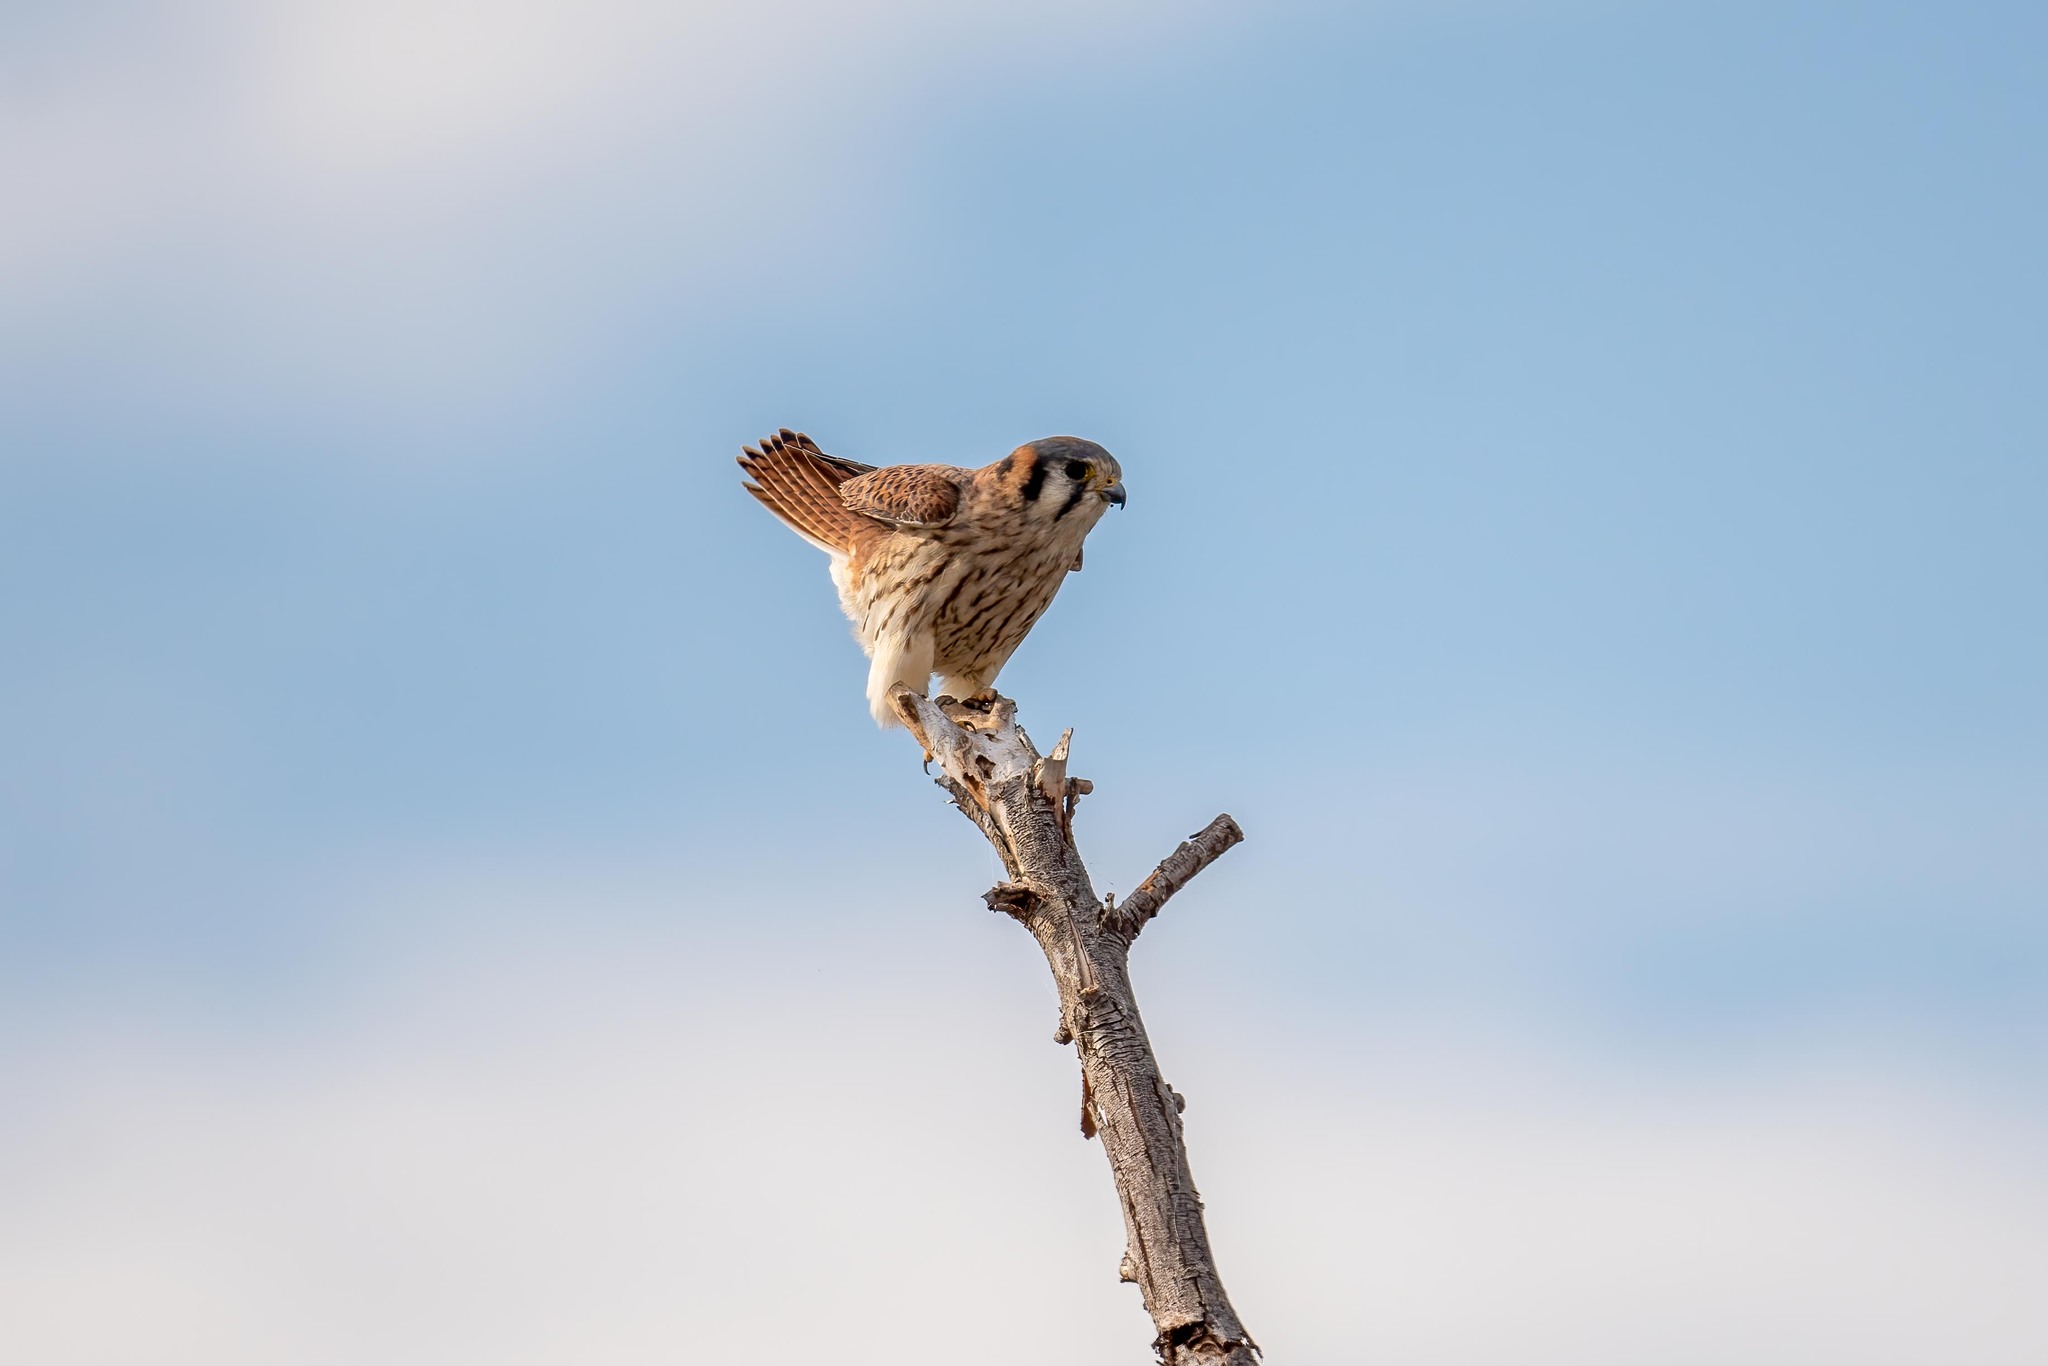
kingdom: Animalia
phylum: Chordata
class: Aves
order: Falconiformes
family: Falconidae
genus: Falco
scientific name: Falco sparverius
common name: American kestrel
